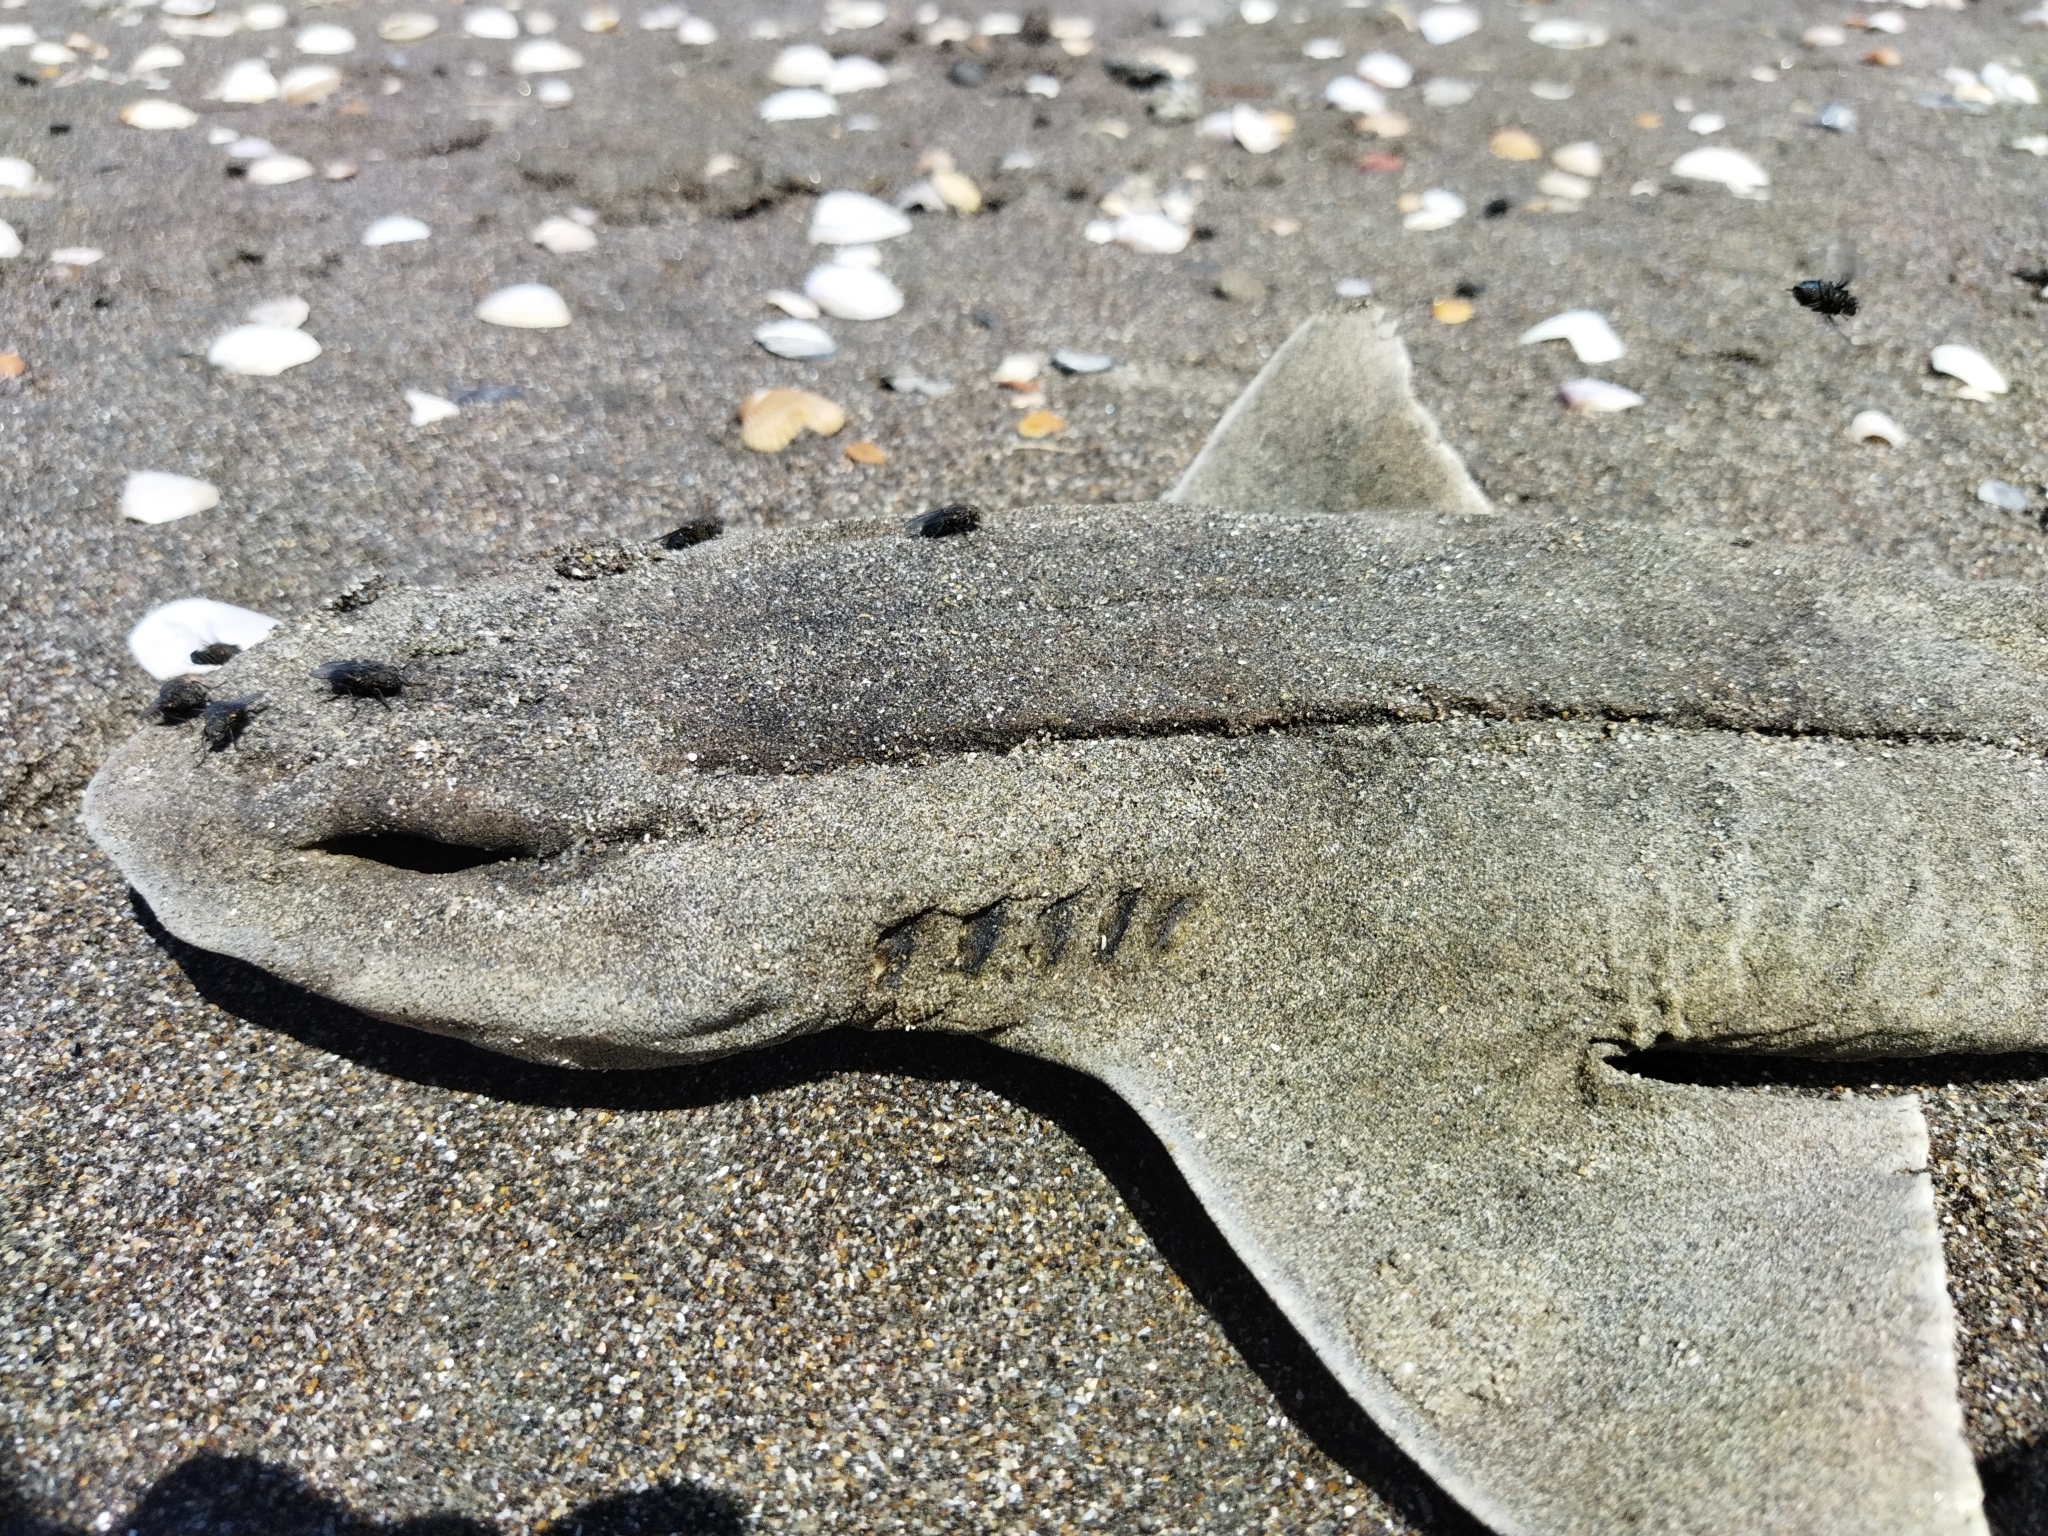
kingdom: Animalia
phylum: Chordata
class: Elasmobranchii
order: Carcharhiniformes
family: Scyliorhinidae
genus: Cephaloscyllium
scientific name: Cephaloscyllium isabellum
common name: Carpet shark
